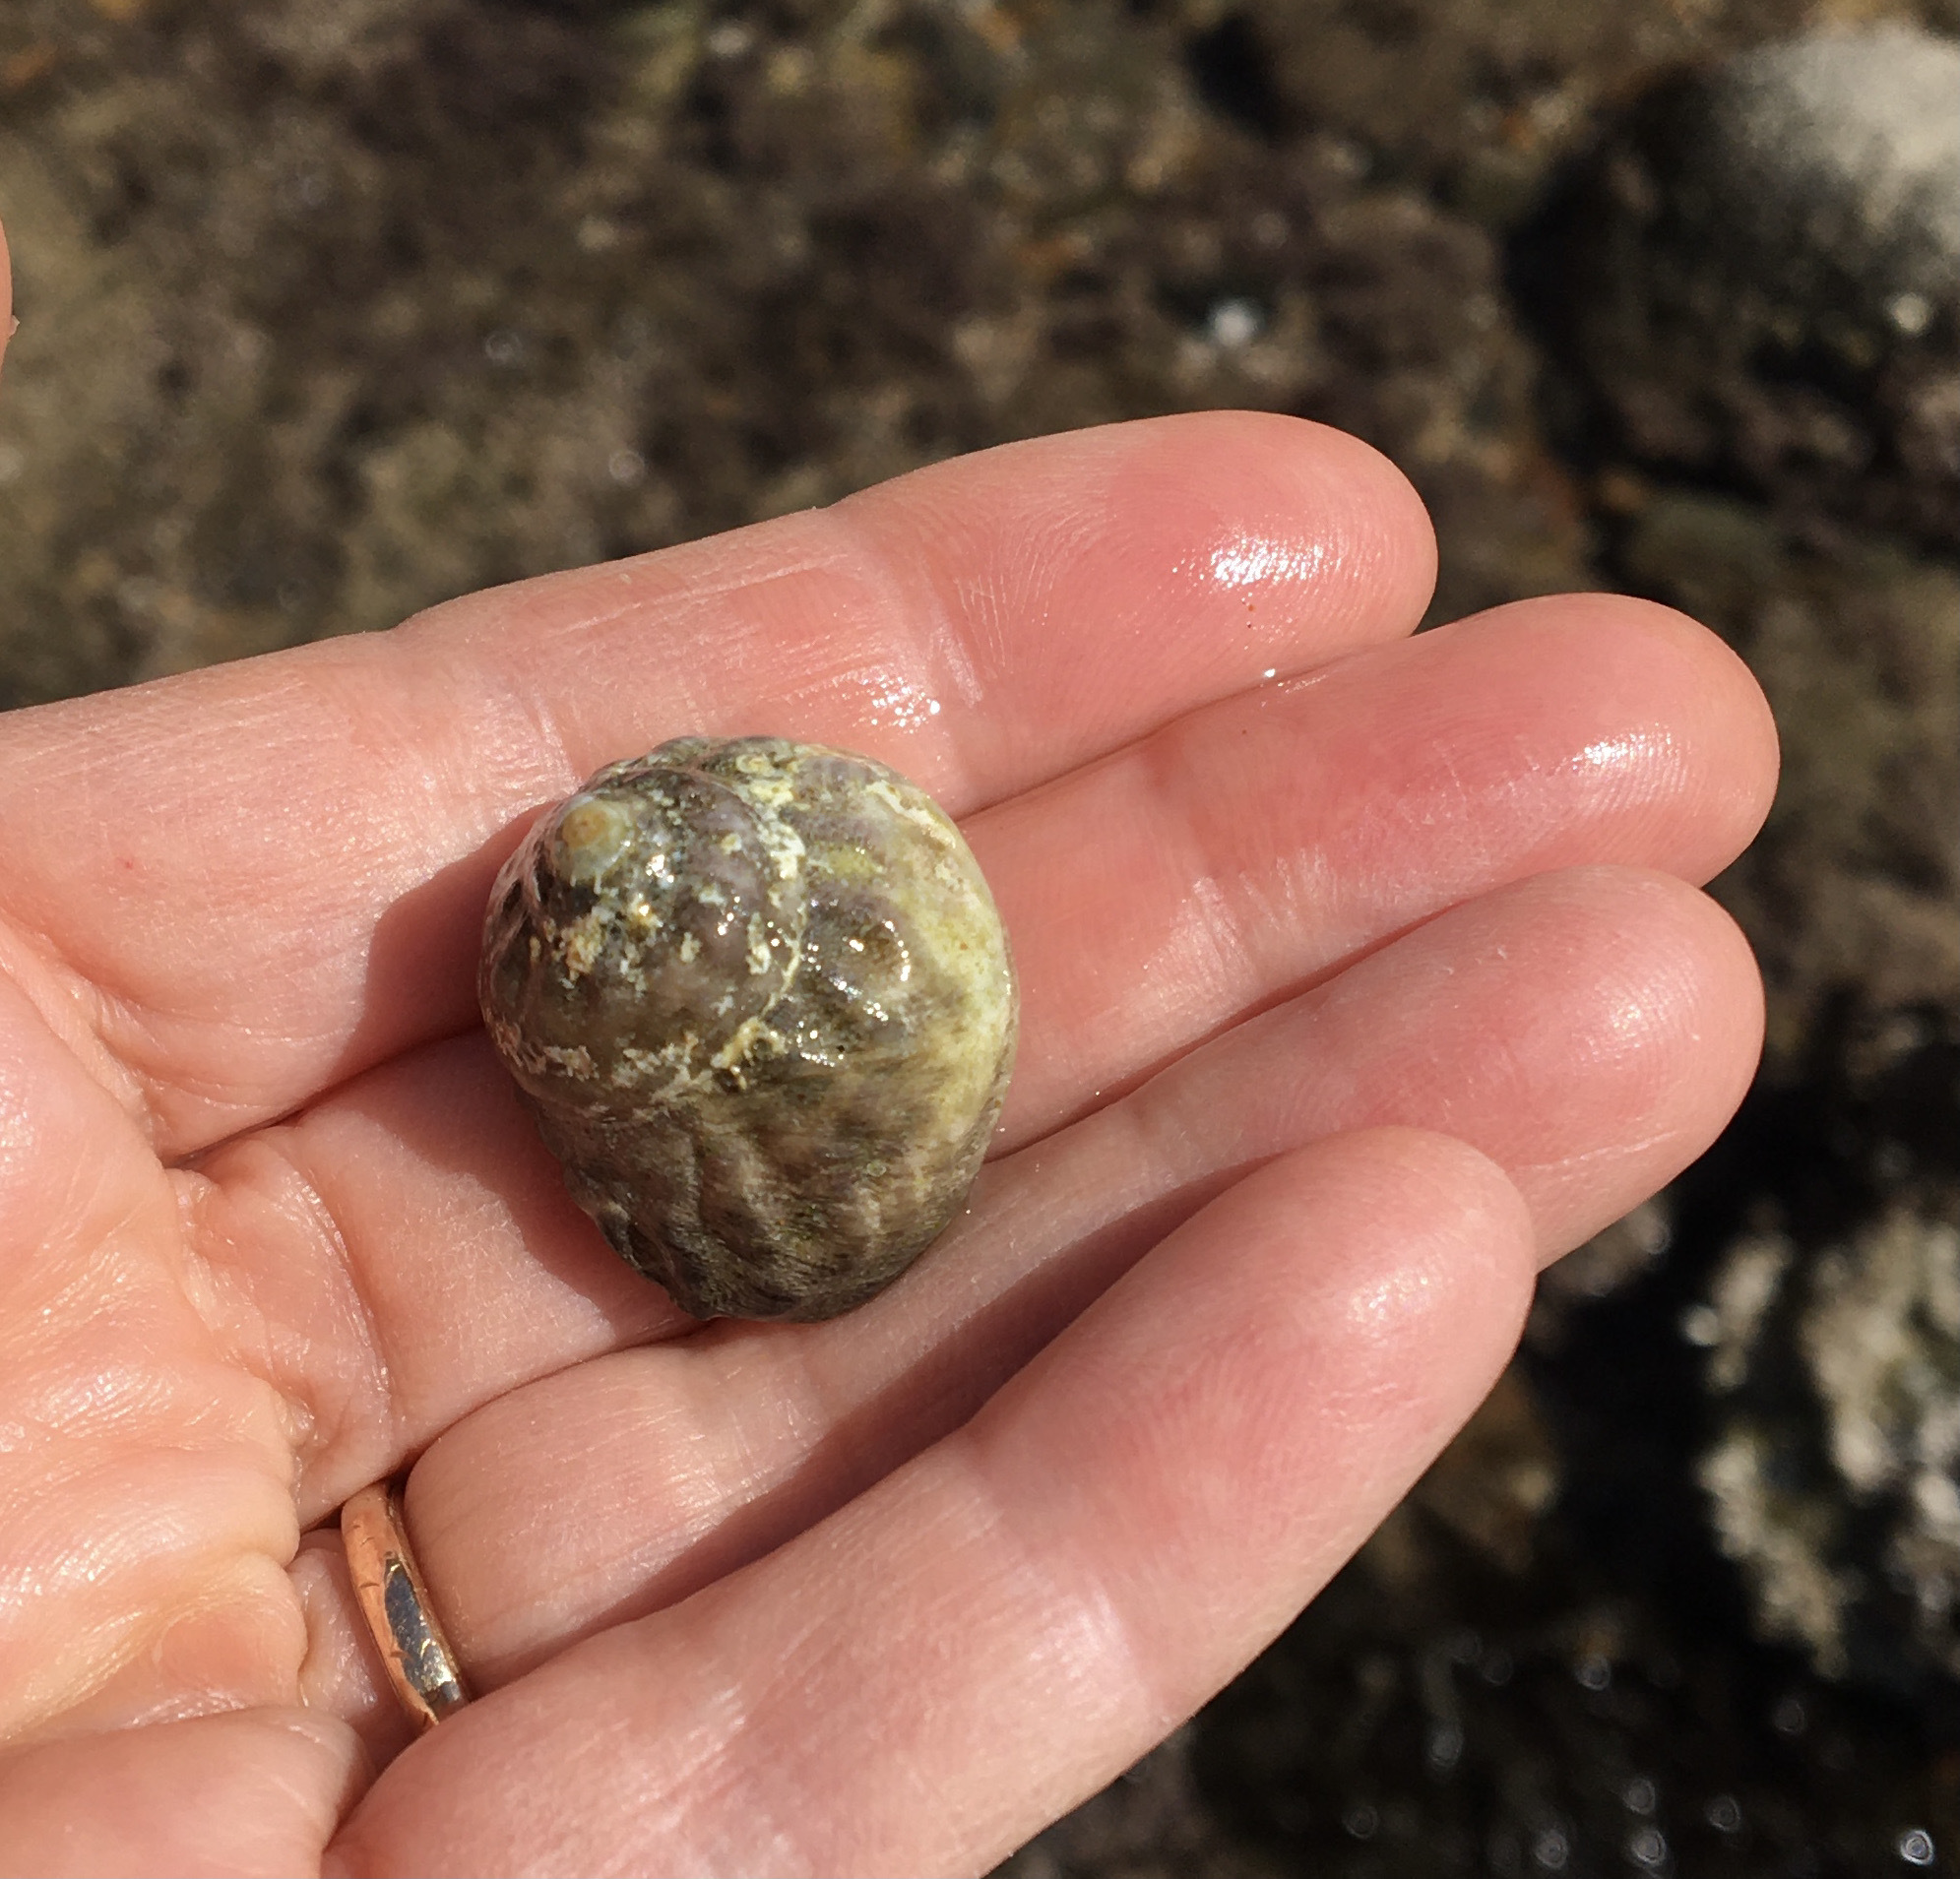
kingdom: Animalia
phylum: Mollusca
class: Gastropoda
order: Trochida
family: Tegulidae
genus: Tegula
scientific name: Tegula aureotincta
